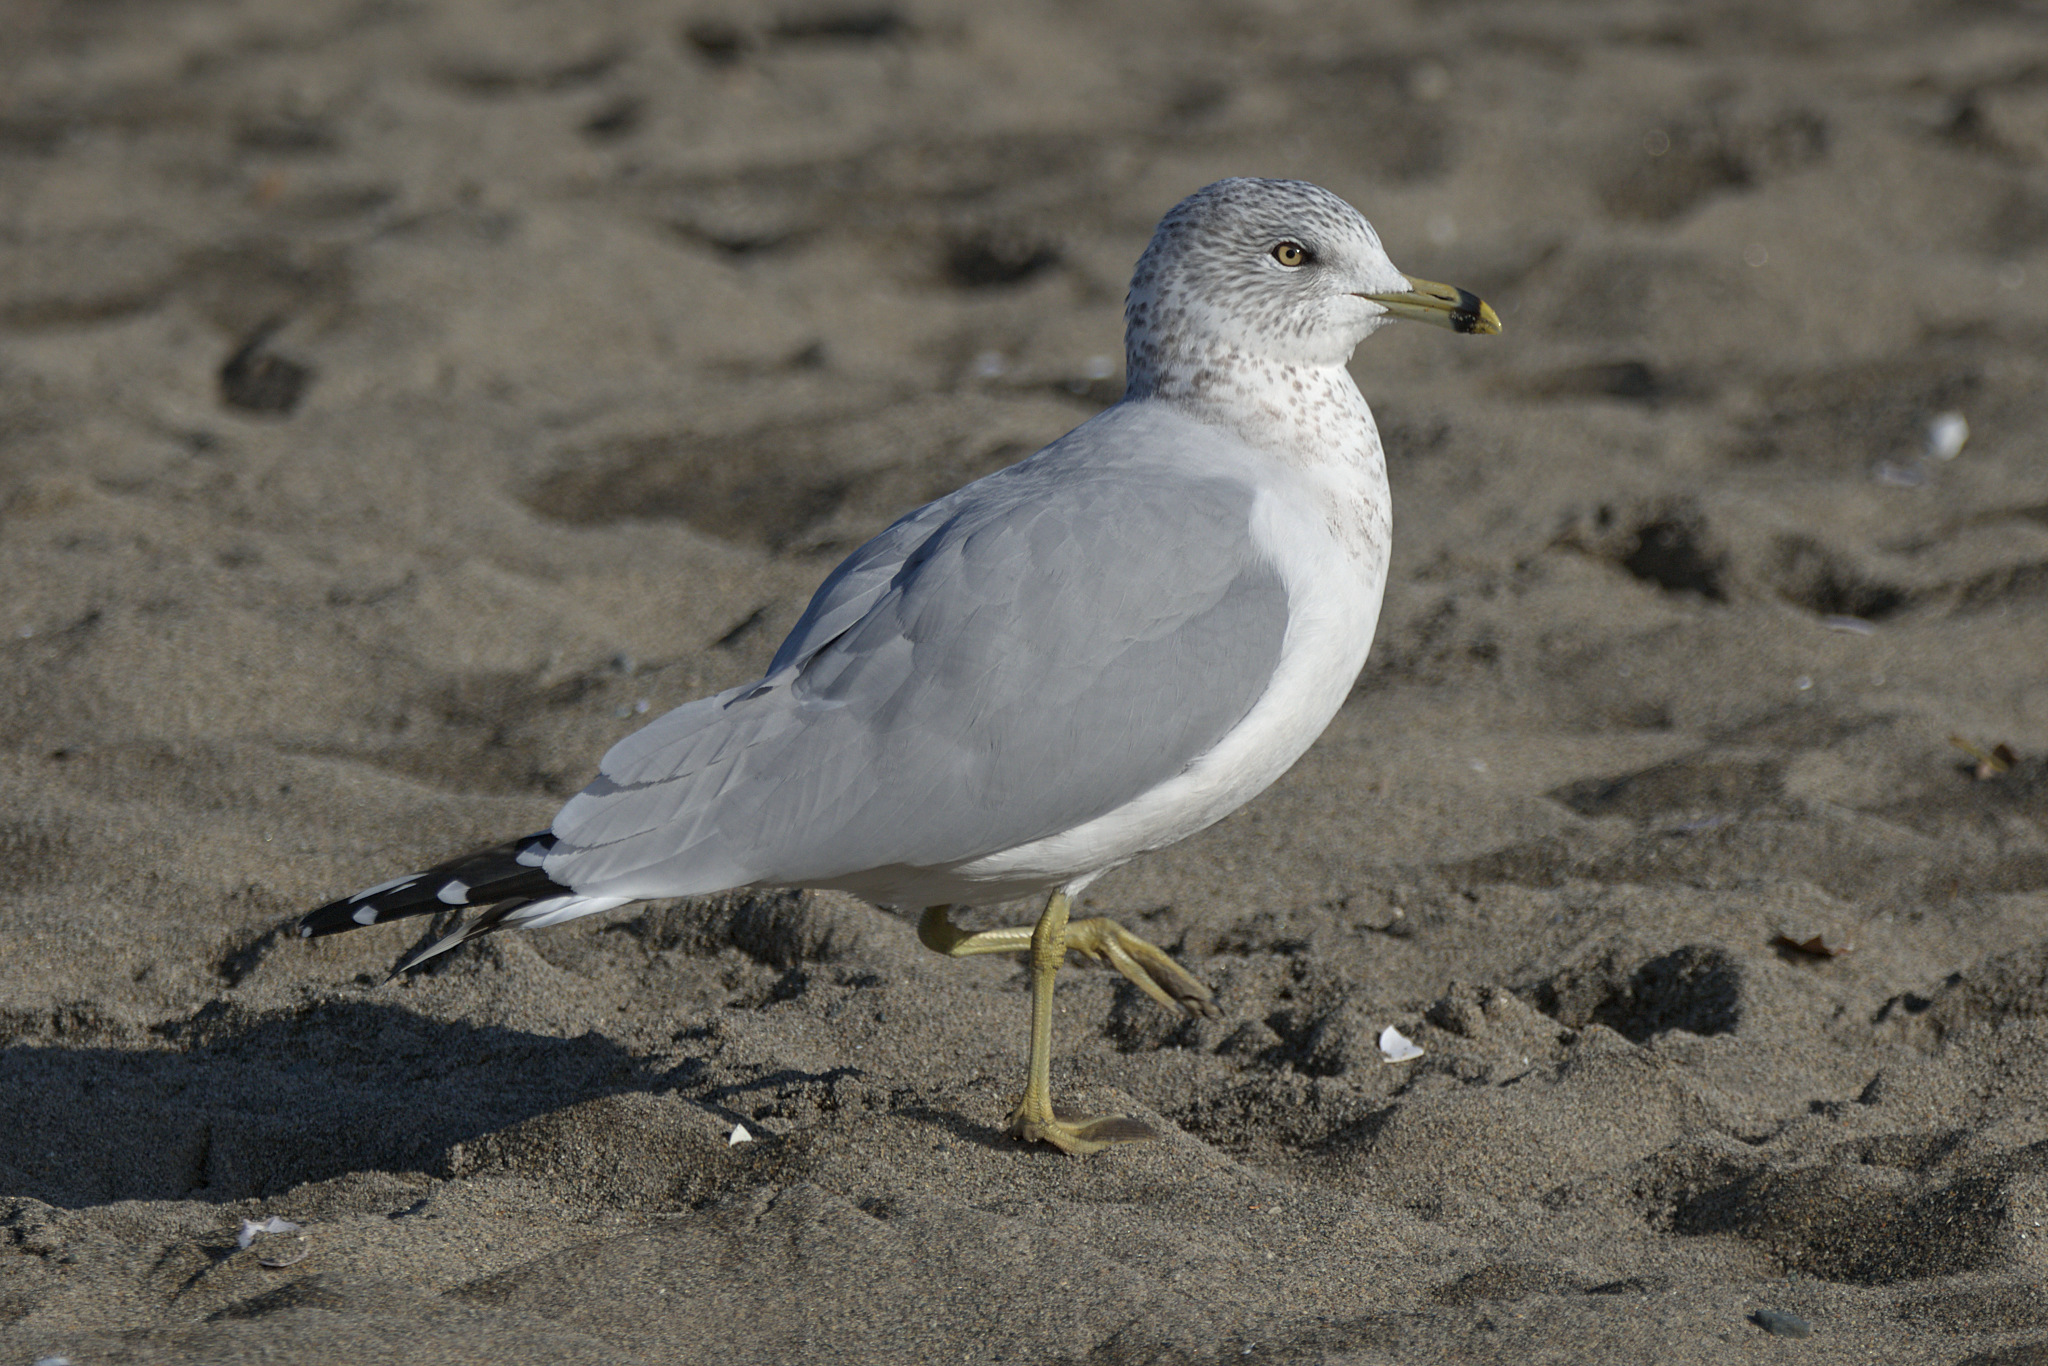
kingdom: Animalia
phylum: Chordata
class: Aves
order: Charadriiformes
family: Laridae
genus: Larus
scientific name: Larus delawarensis
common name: Ring-billed gull
